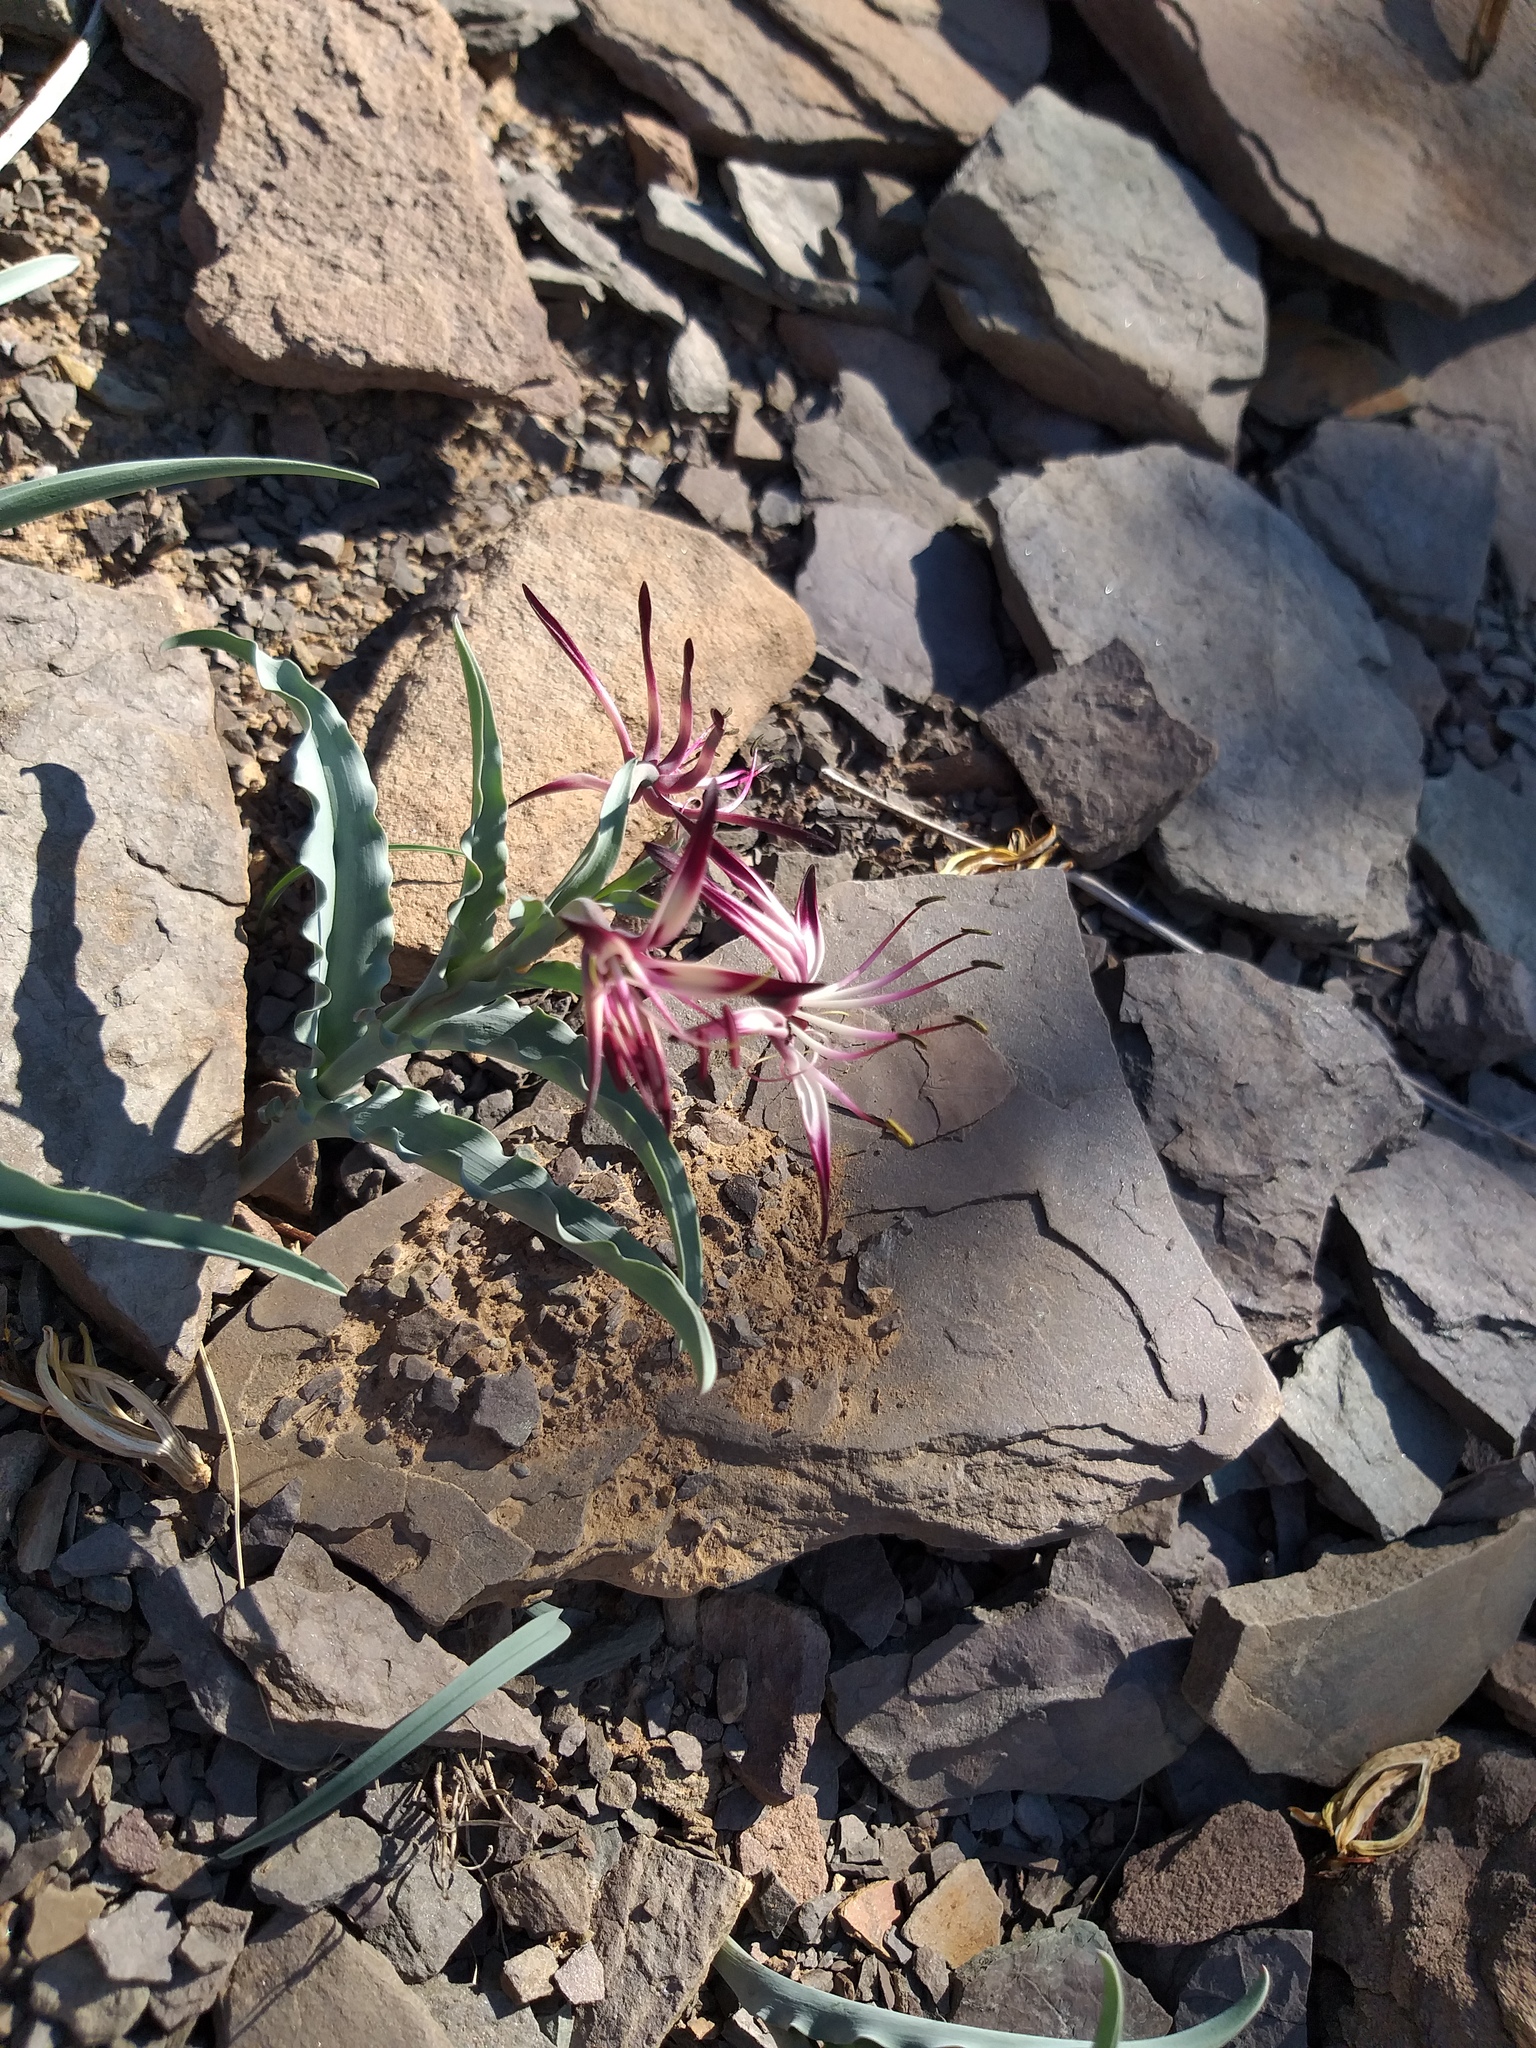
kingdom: Plantae
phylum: Tracheophyta
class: Liliopsida
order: Liliales
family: Colchicaceae
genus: Ornithoglossum
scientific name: Ornithoglossum undulatum
